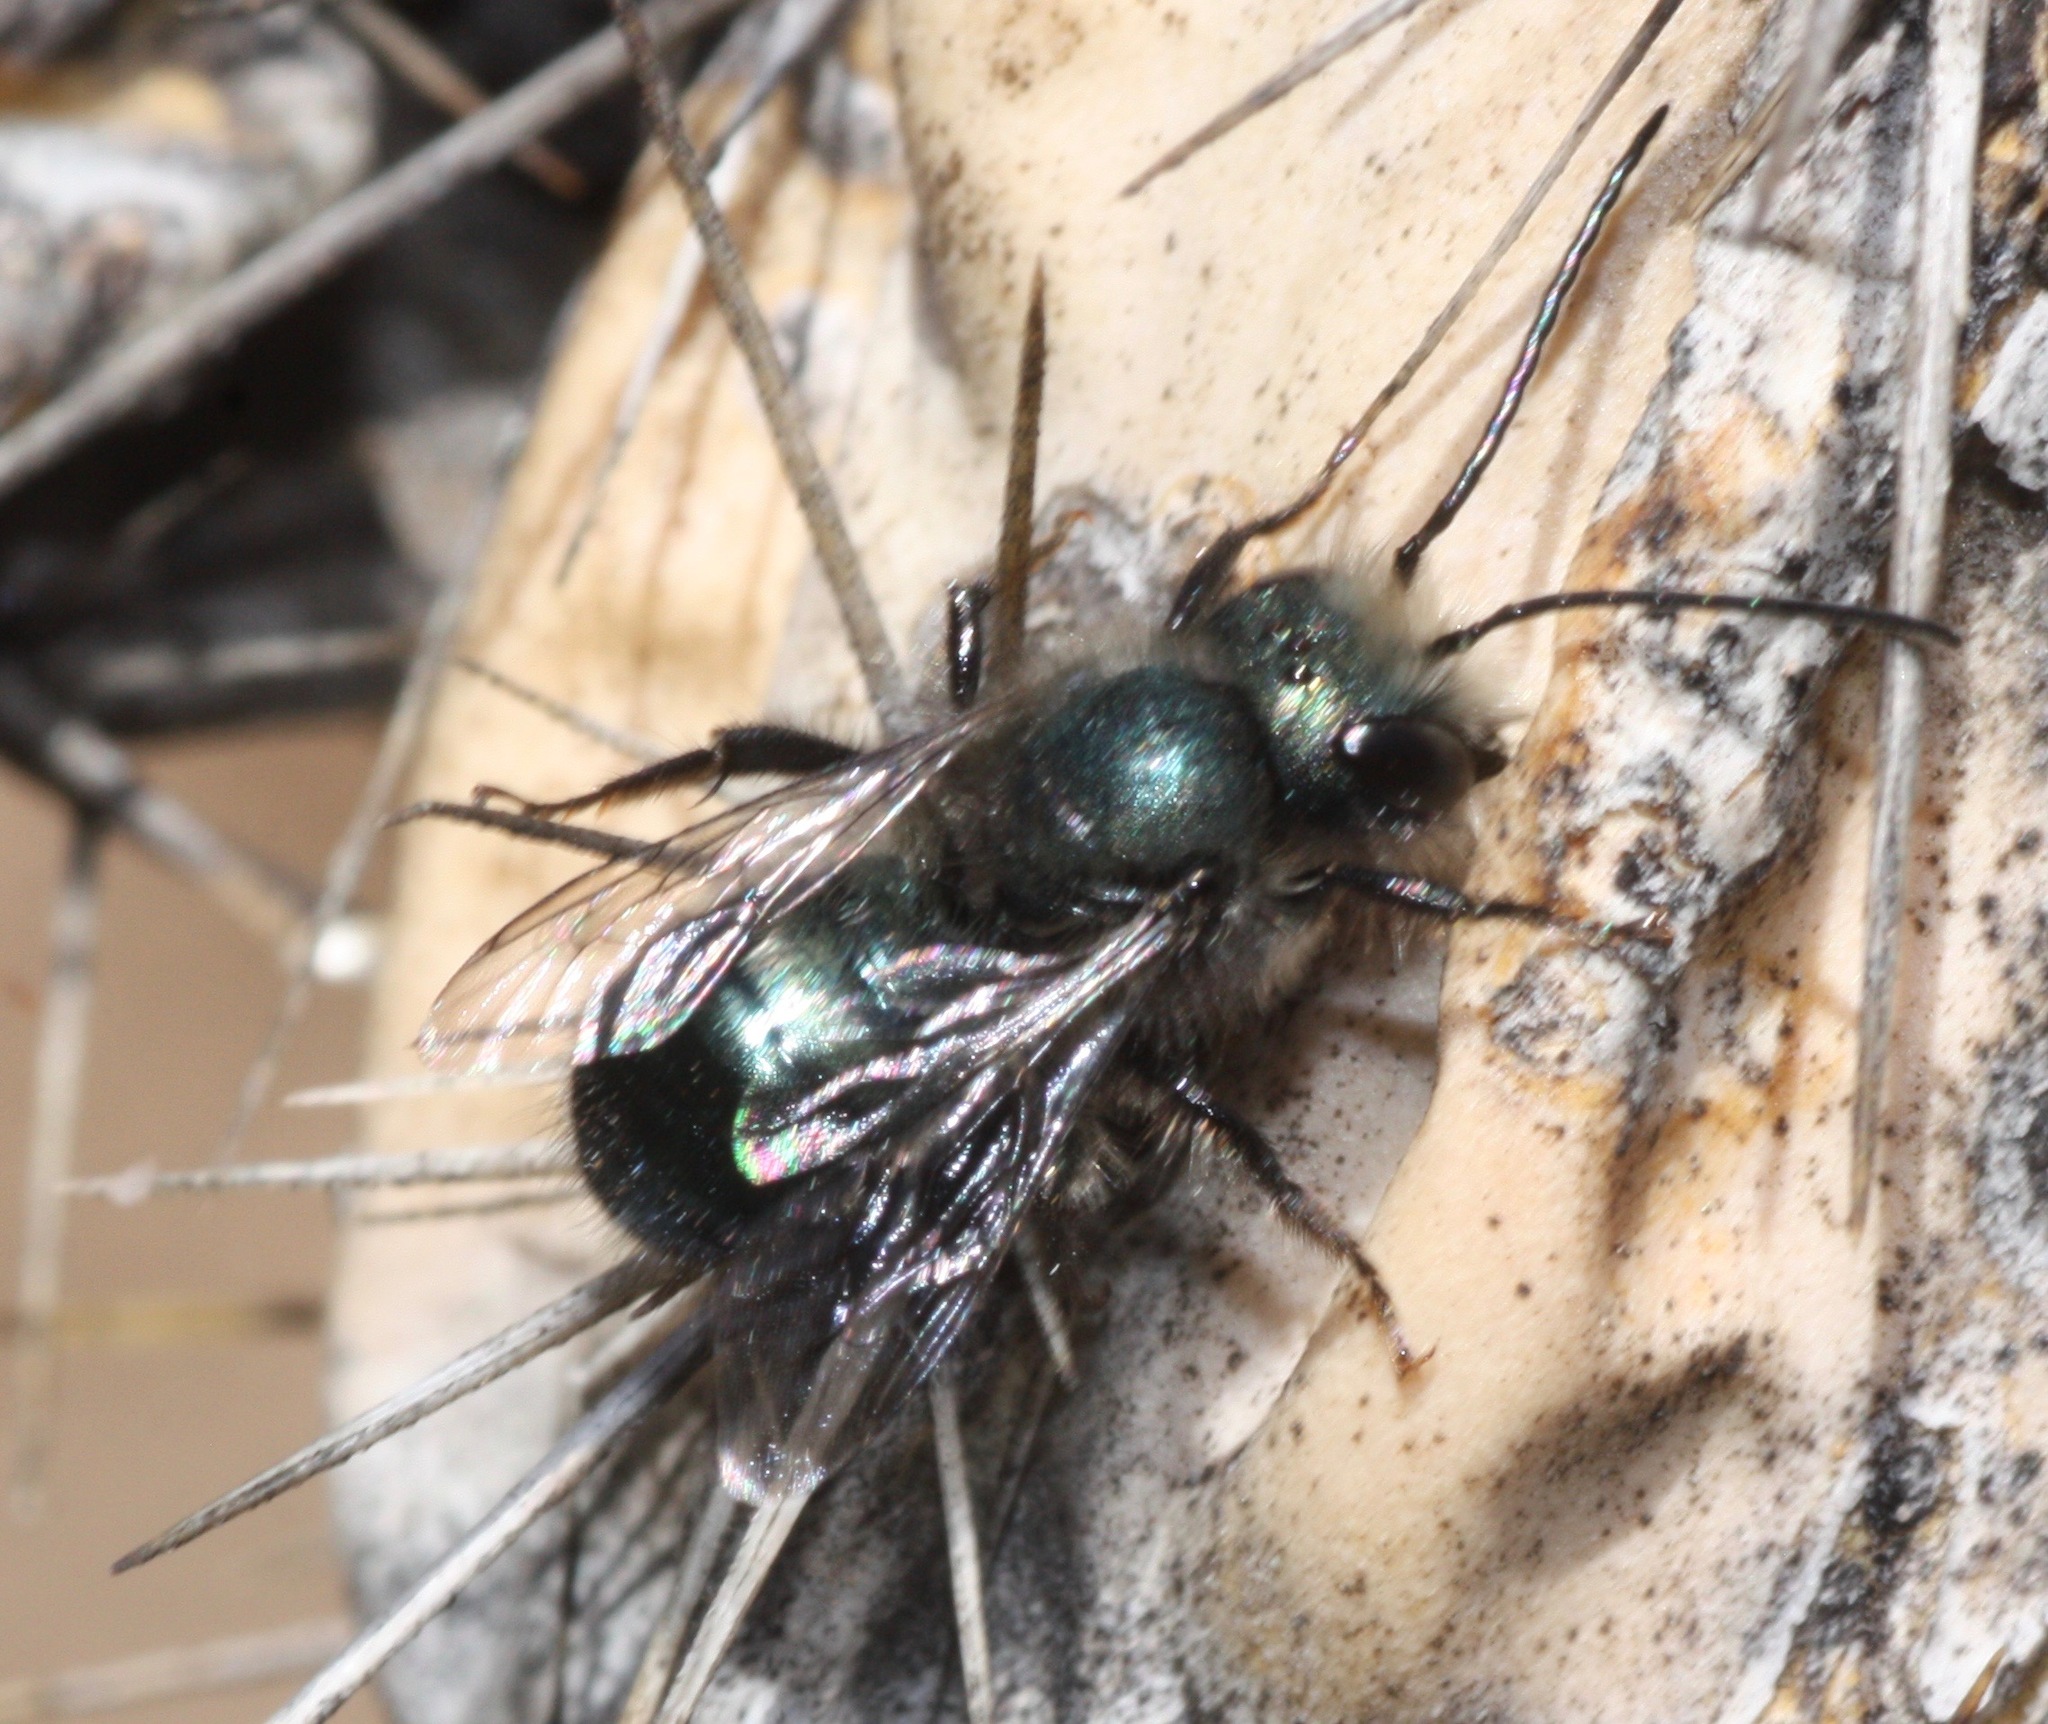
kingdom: Animalia
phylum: Arthropoda
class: Insecta
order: Hymenoptera
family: Megachilidae
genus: Osmia
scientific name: Osmia
